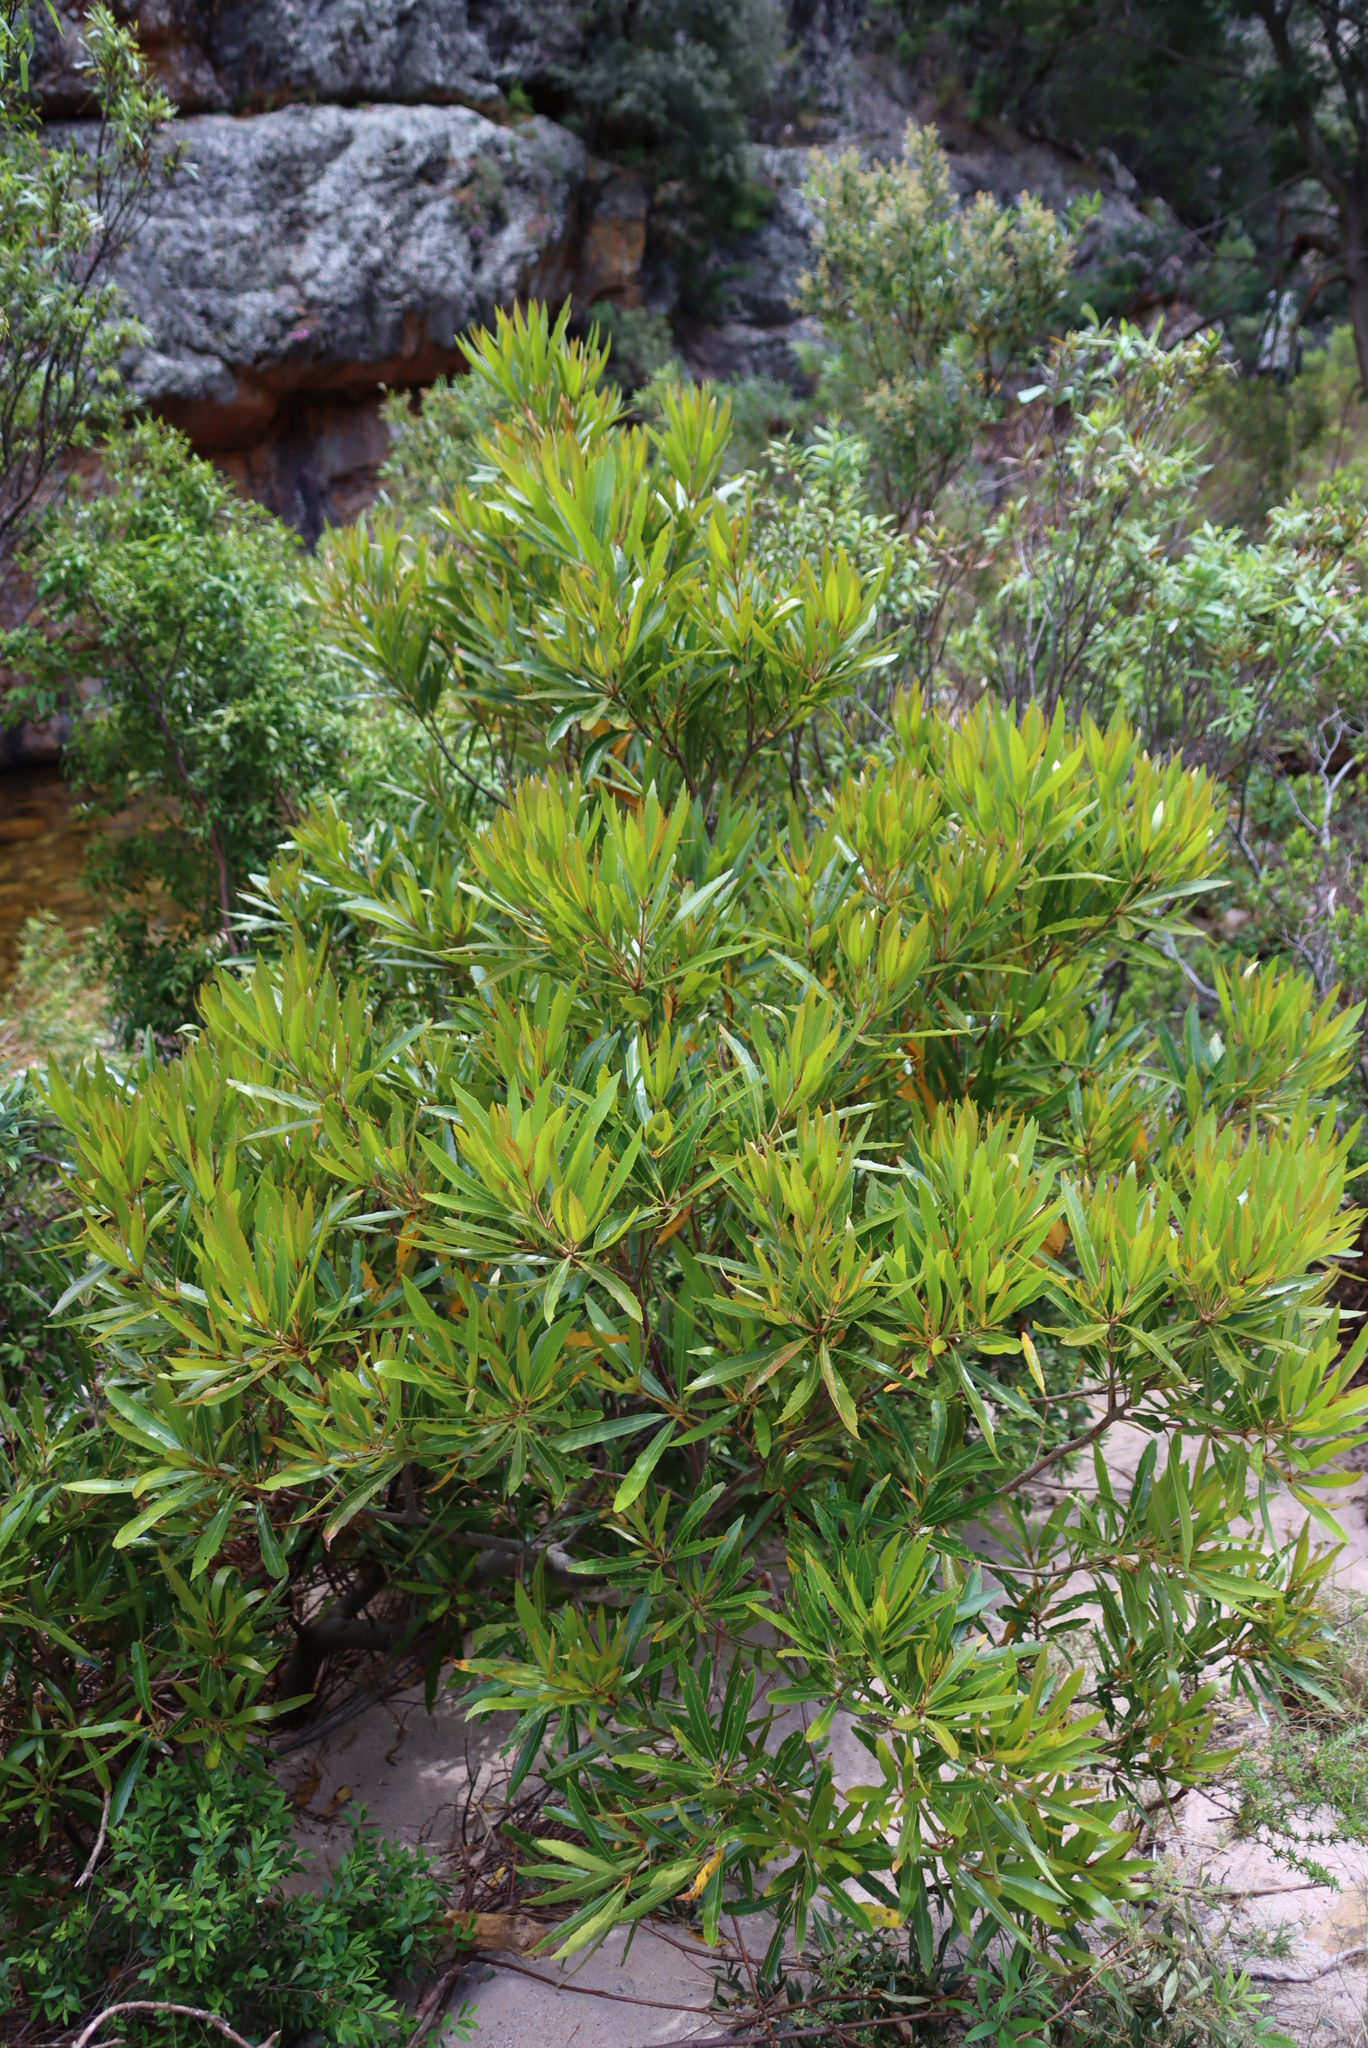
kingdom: Plantae
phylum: Tracheophyta
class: Magnoliopsida
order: Proteales
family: Proteaceae
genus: Brabejum
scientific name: Brabejum stellatifolium
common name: Wild almond
